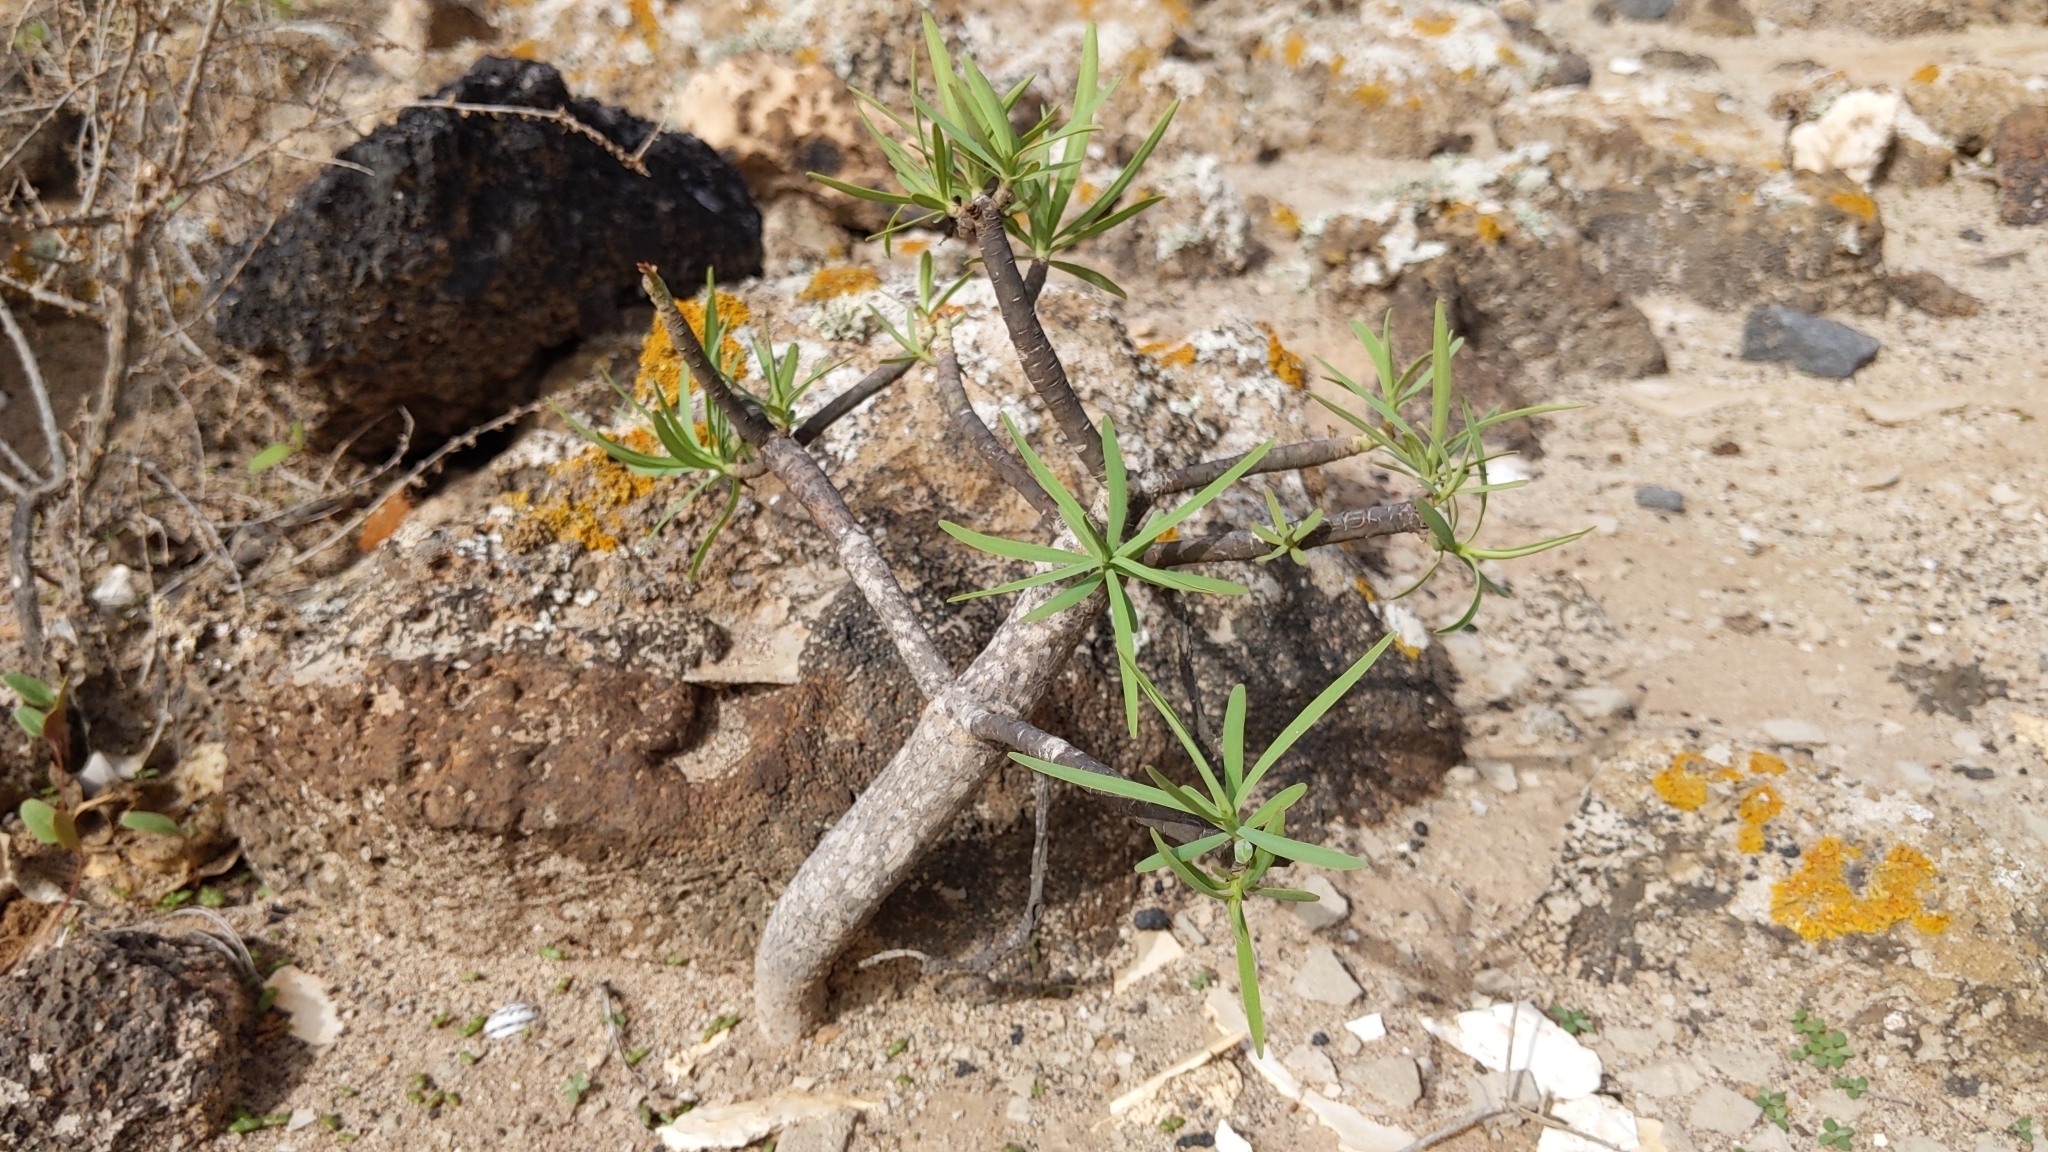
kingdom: Plantae
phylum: Tracheophyta
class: Magnoliopsida
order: Malpighiales
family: Euphorbiaceae
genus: Euphorbia
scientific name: Euphorbia regis-jubae
